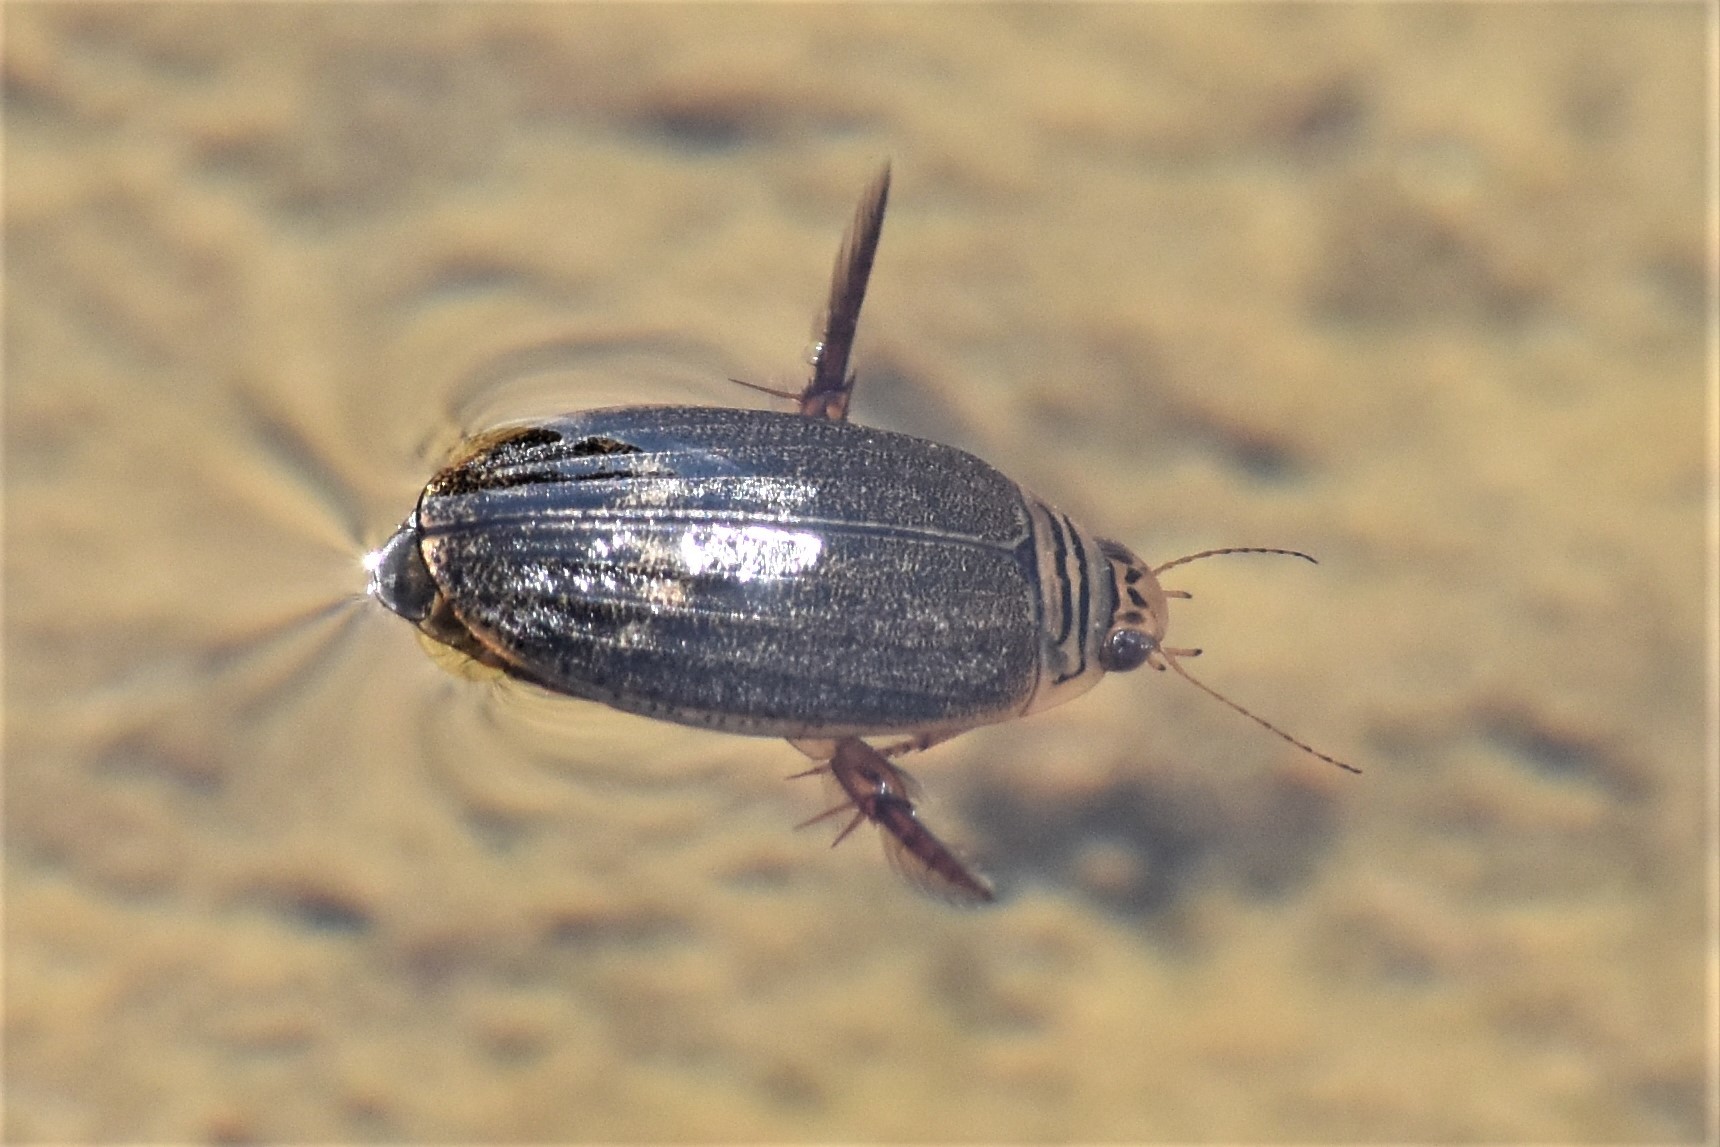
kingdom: Animalia
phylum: Arthropoda
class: Insecta
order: Coleoptera
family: Dytiscidae
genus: Acilius
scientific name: Acilius abbreviatus
